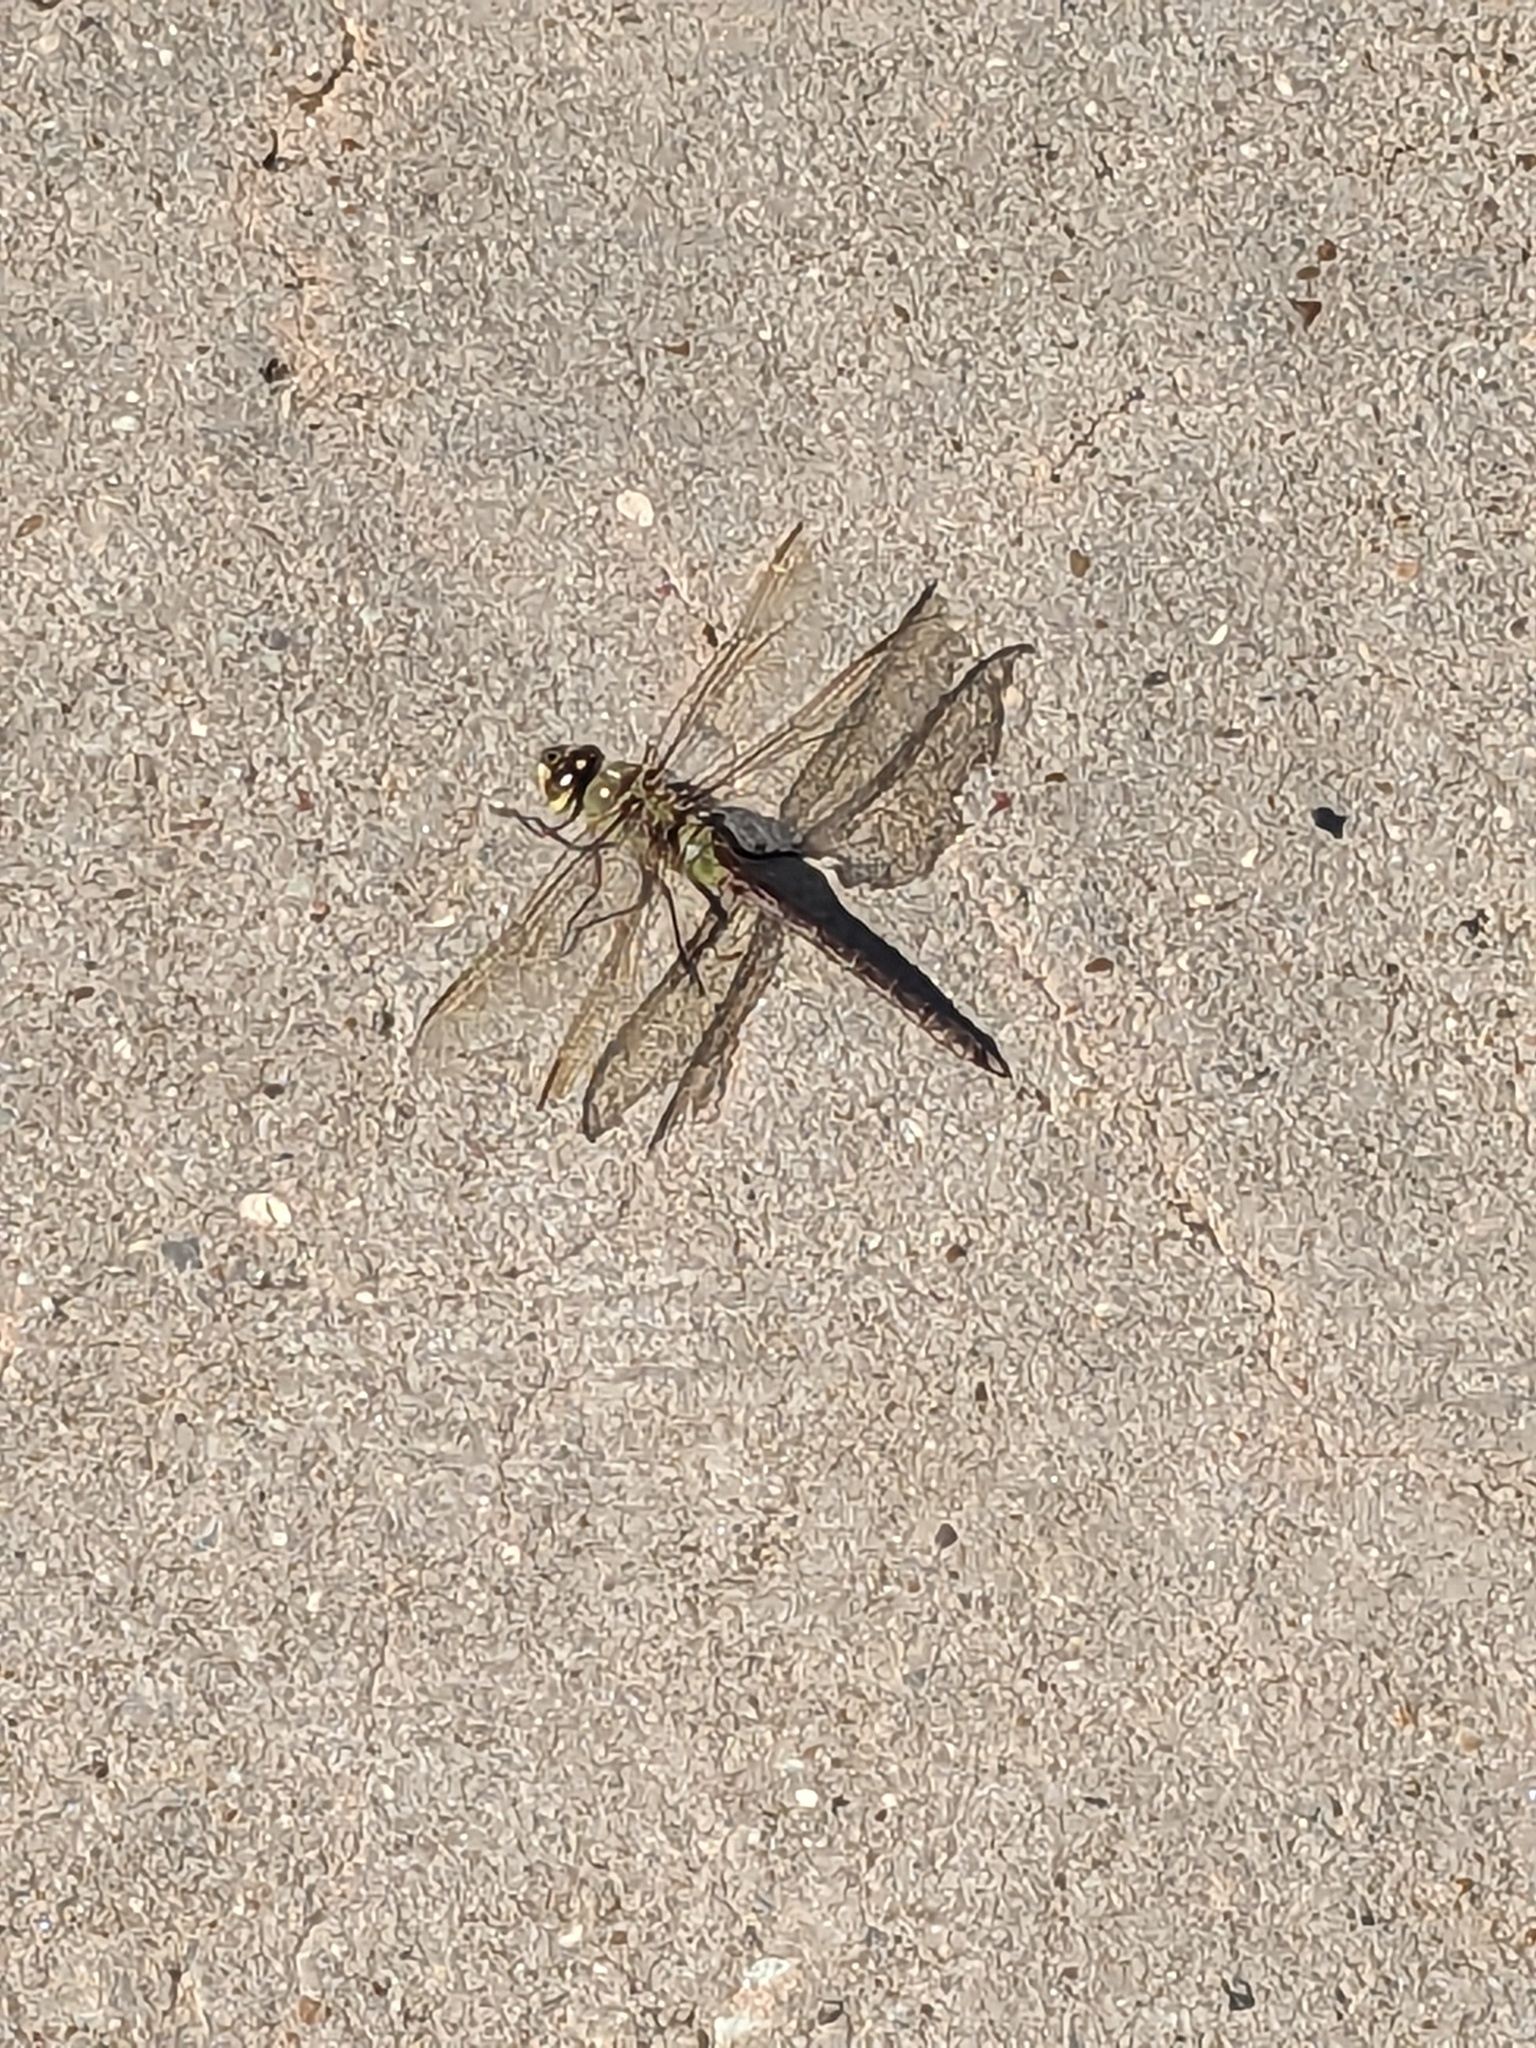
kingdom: Animalia
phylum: Arthropoda
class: Insecta
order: Odonata
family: Aeshnidae
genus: Anax
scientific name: Anax junius
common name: Common green darner
